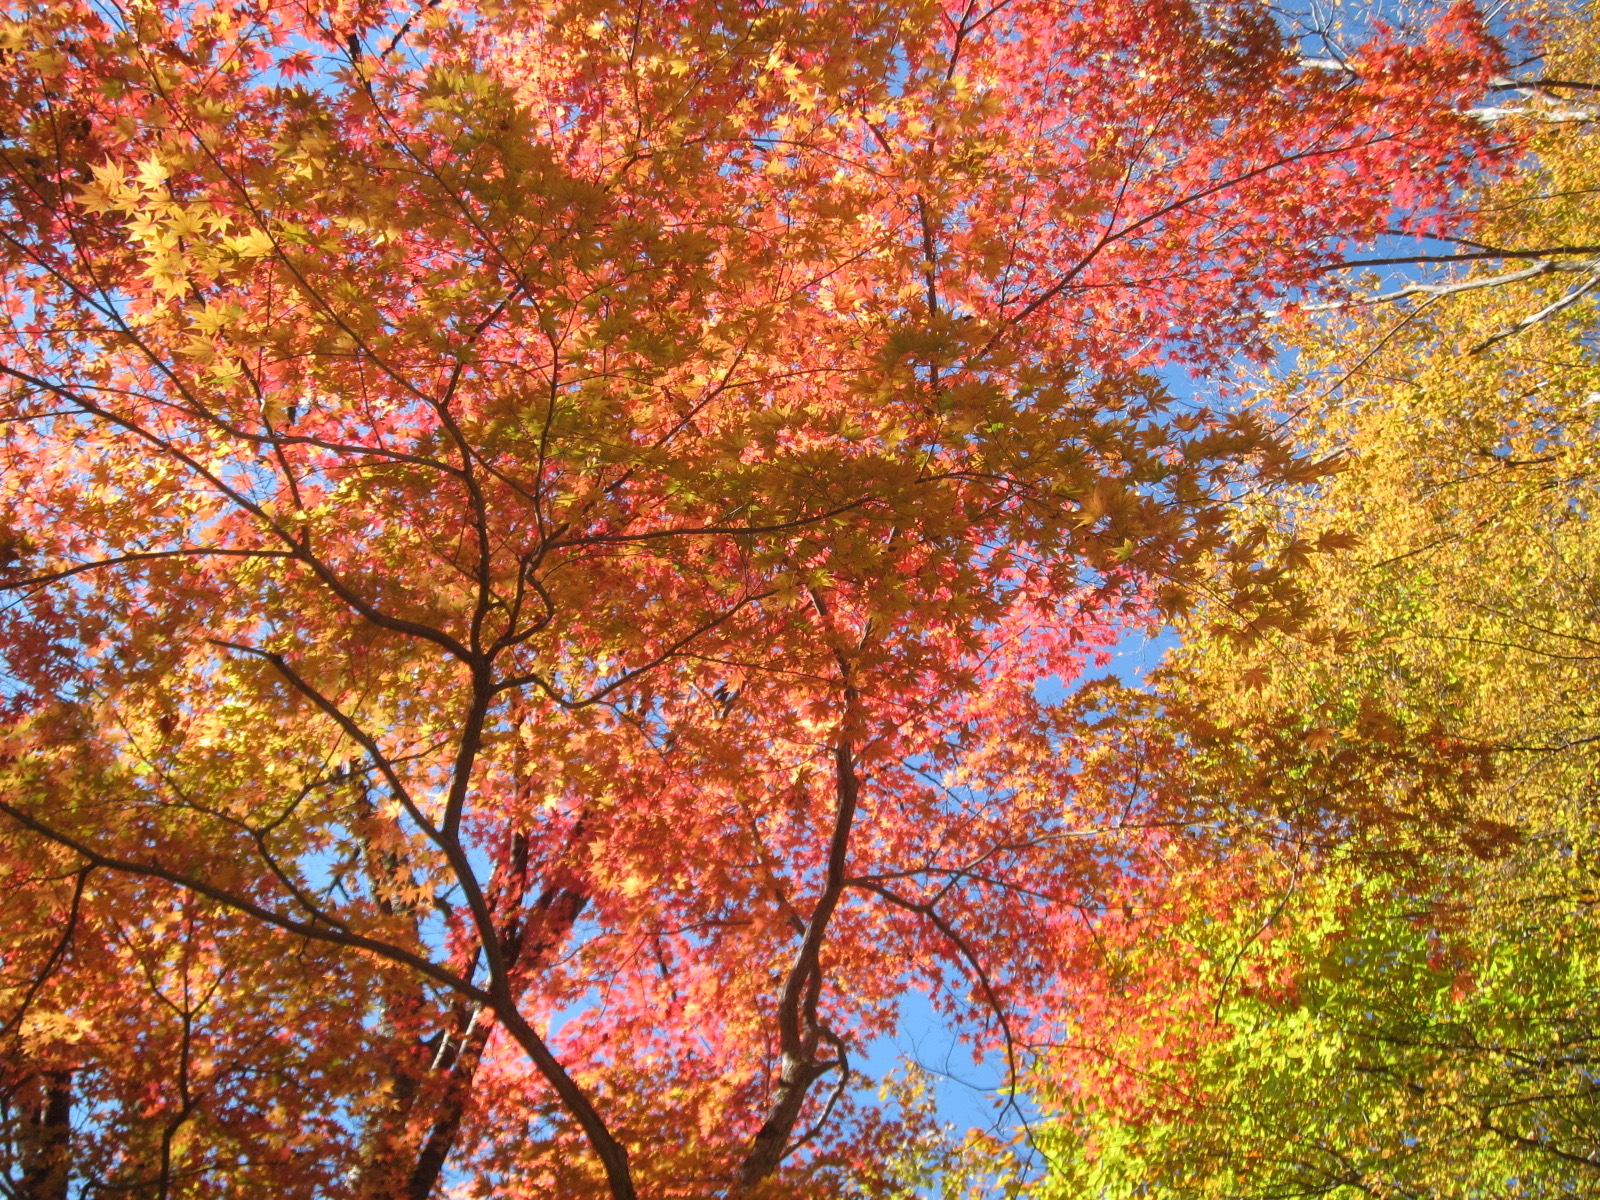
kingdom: Plantae
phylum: Tracheophyta
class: Magnoliopsida
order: Sapindales
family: Sapindaceae
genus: Acer
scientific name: Acer palmatum
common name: Japanese maple
